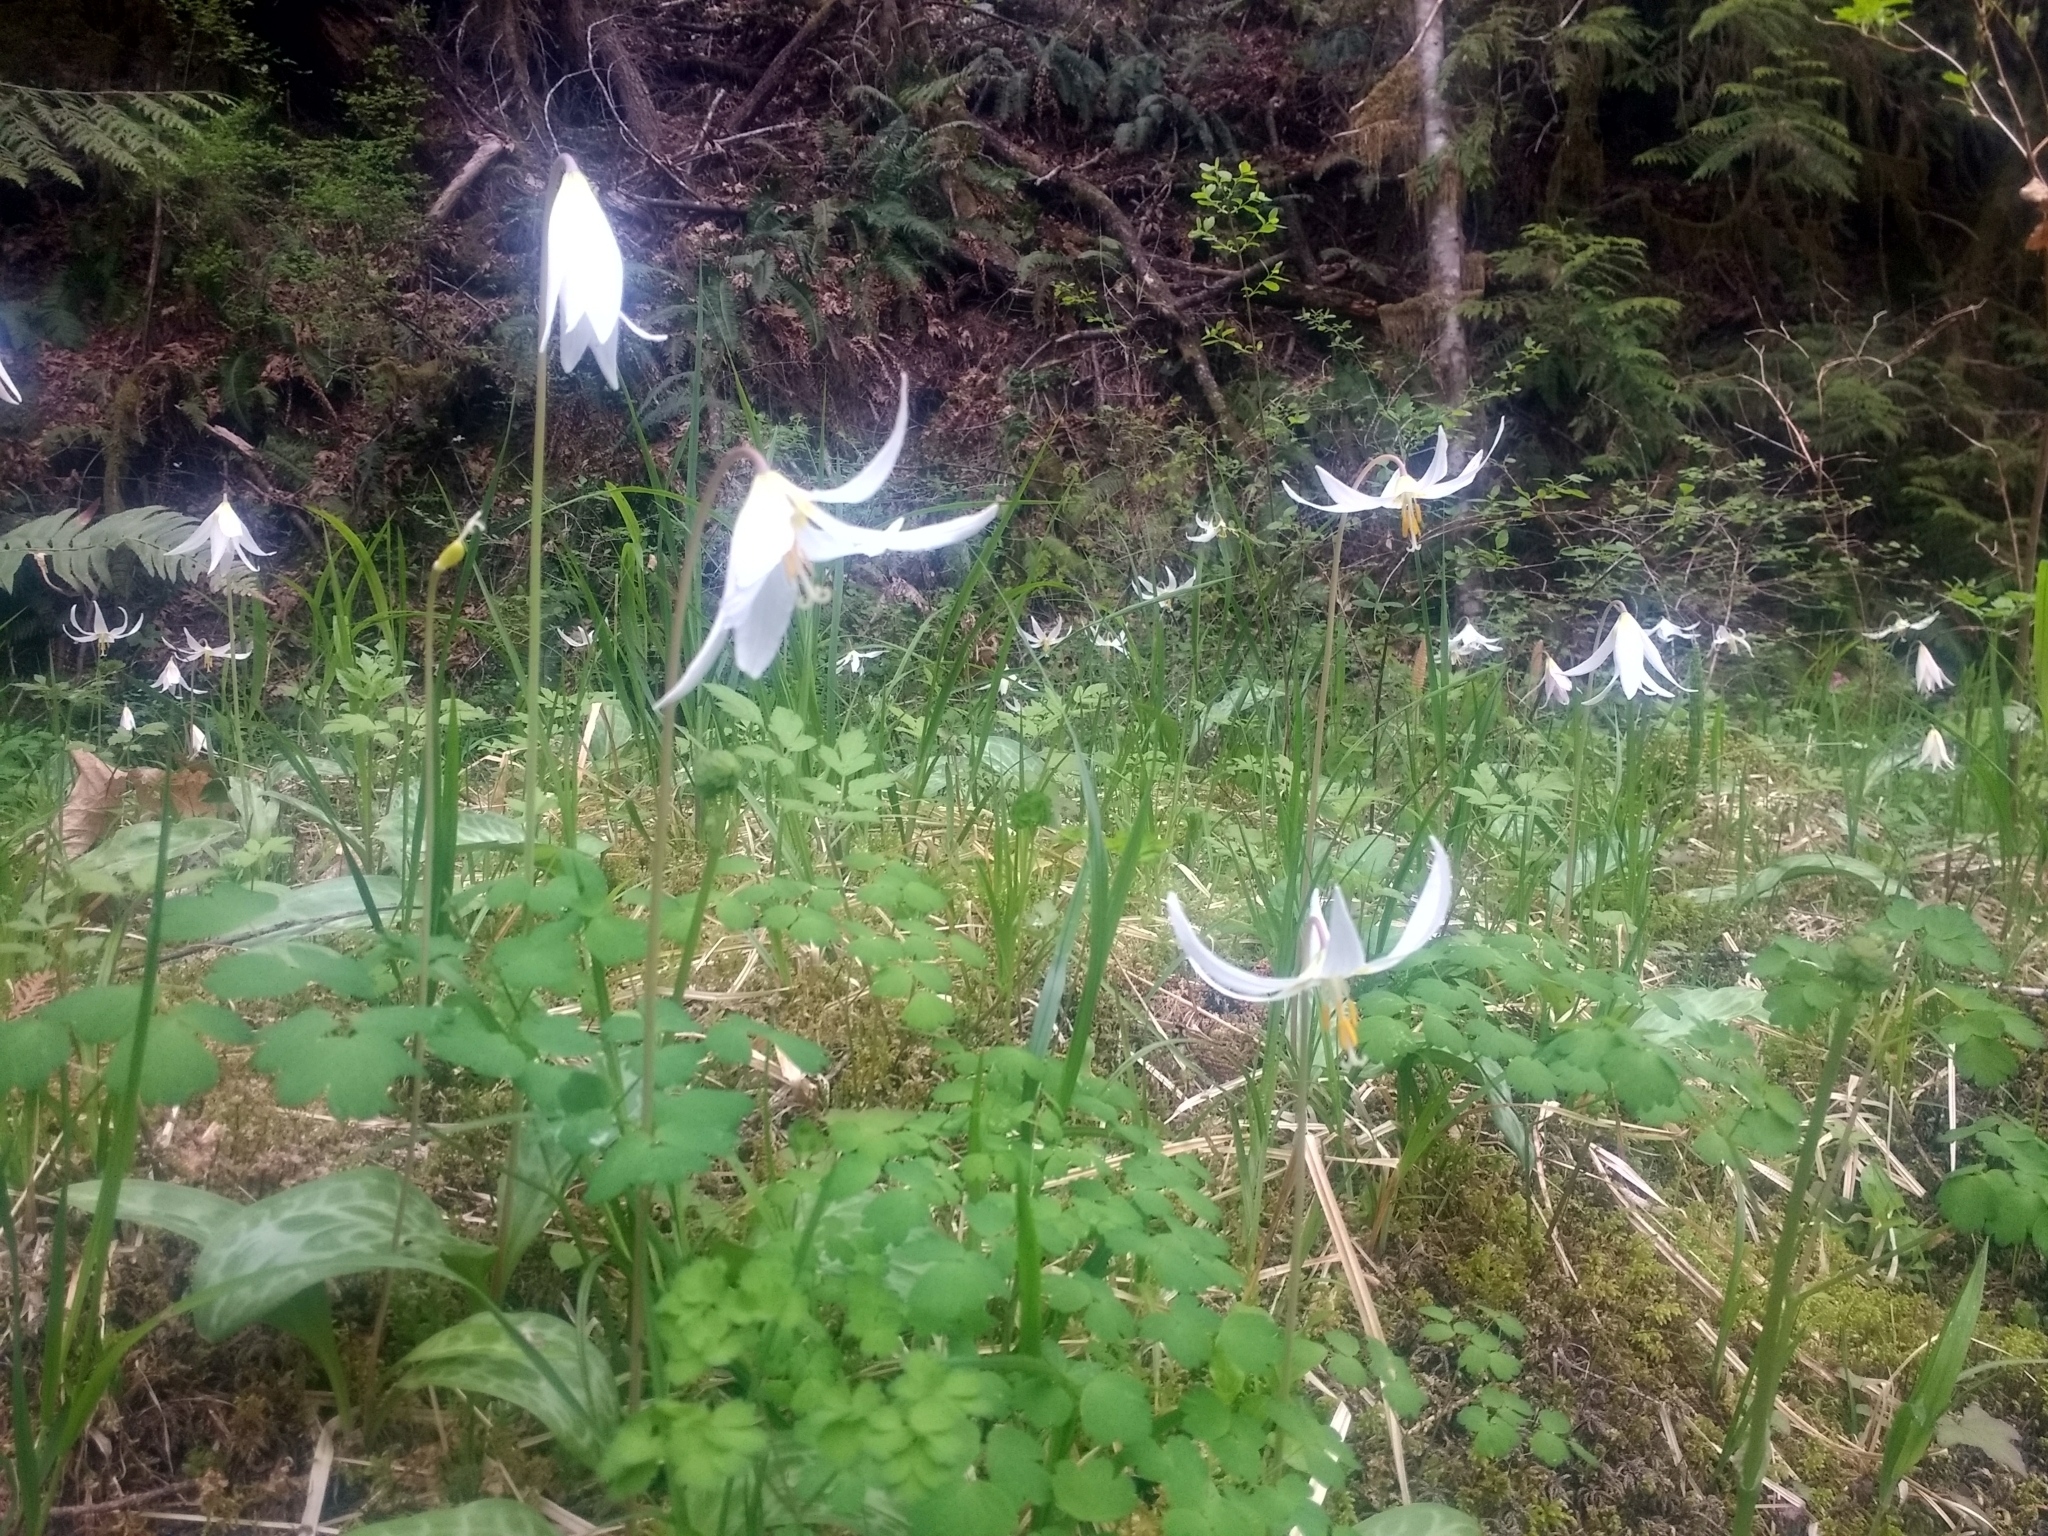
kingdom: Plantae
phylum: Tracheophyta
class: Liliopsida
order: Liliales
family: Liliaceae
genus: Erythronium
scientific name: Erythronium oregonum
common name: Giant adder's-tongue
